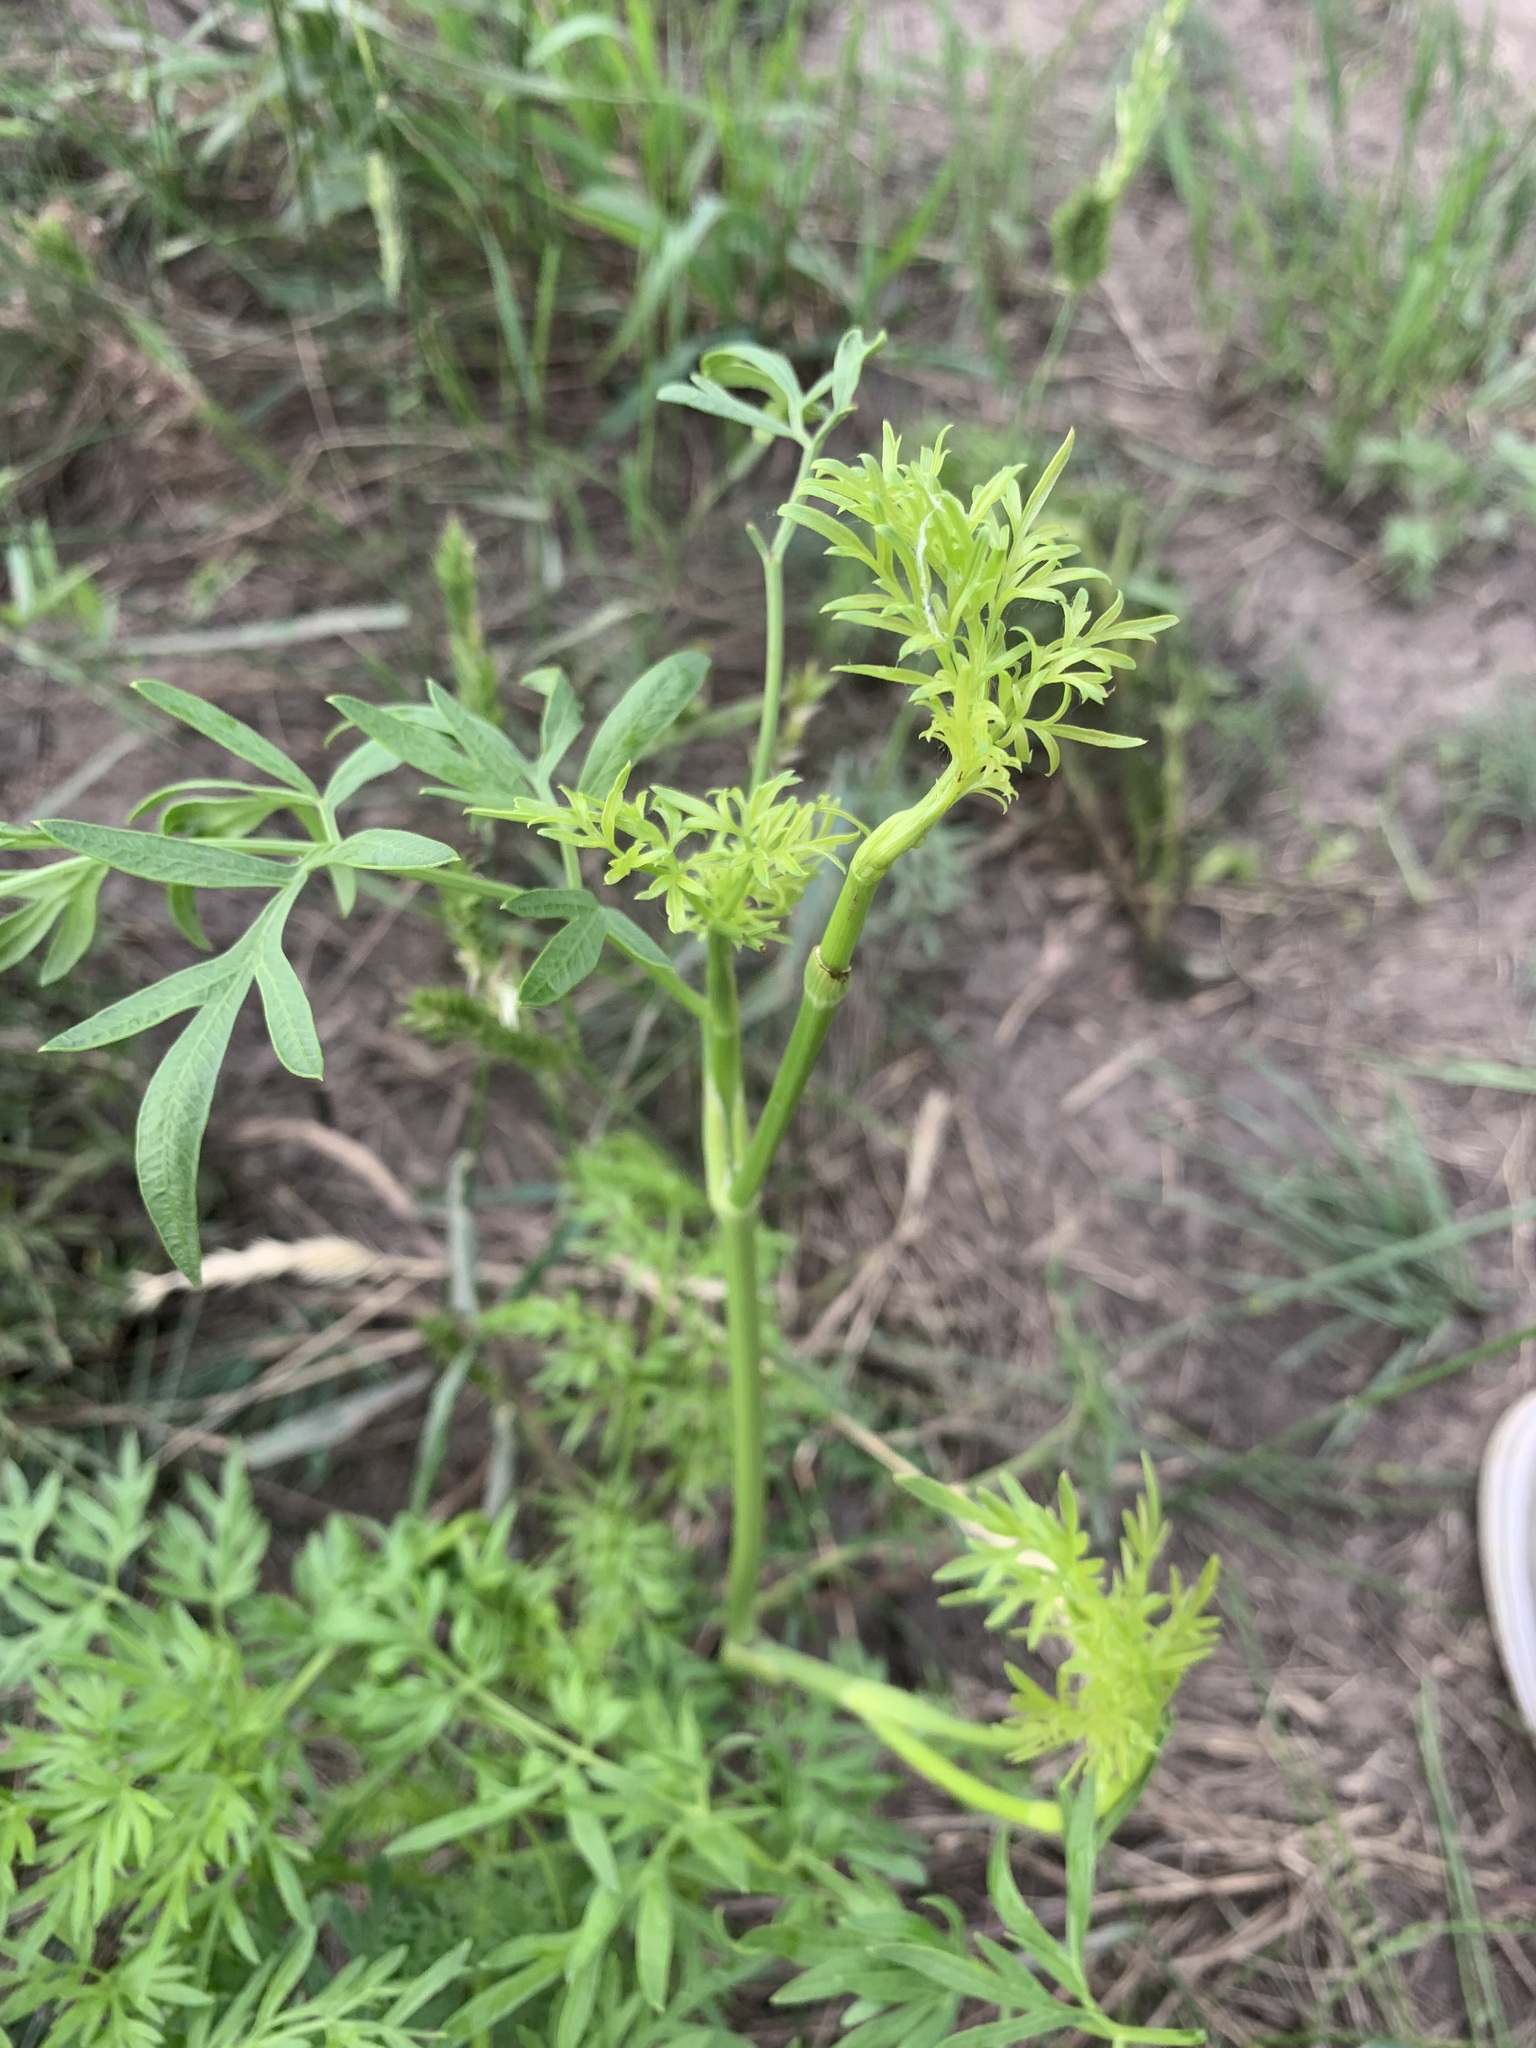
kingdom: Plantae
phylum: Tracheophyta
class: Magnoliopsida
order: Apiales
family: Apiaceae
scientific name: Apiaceae
